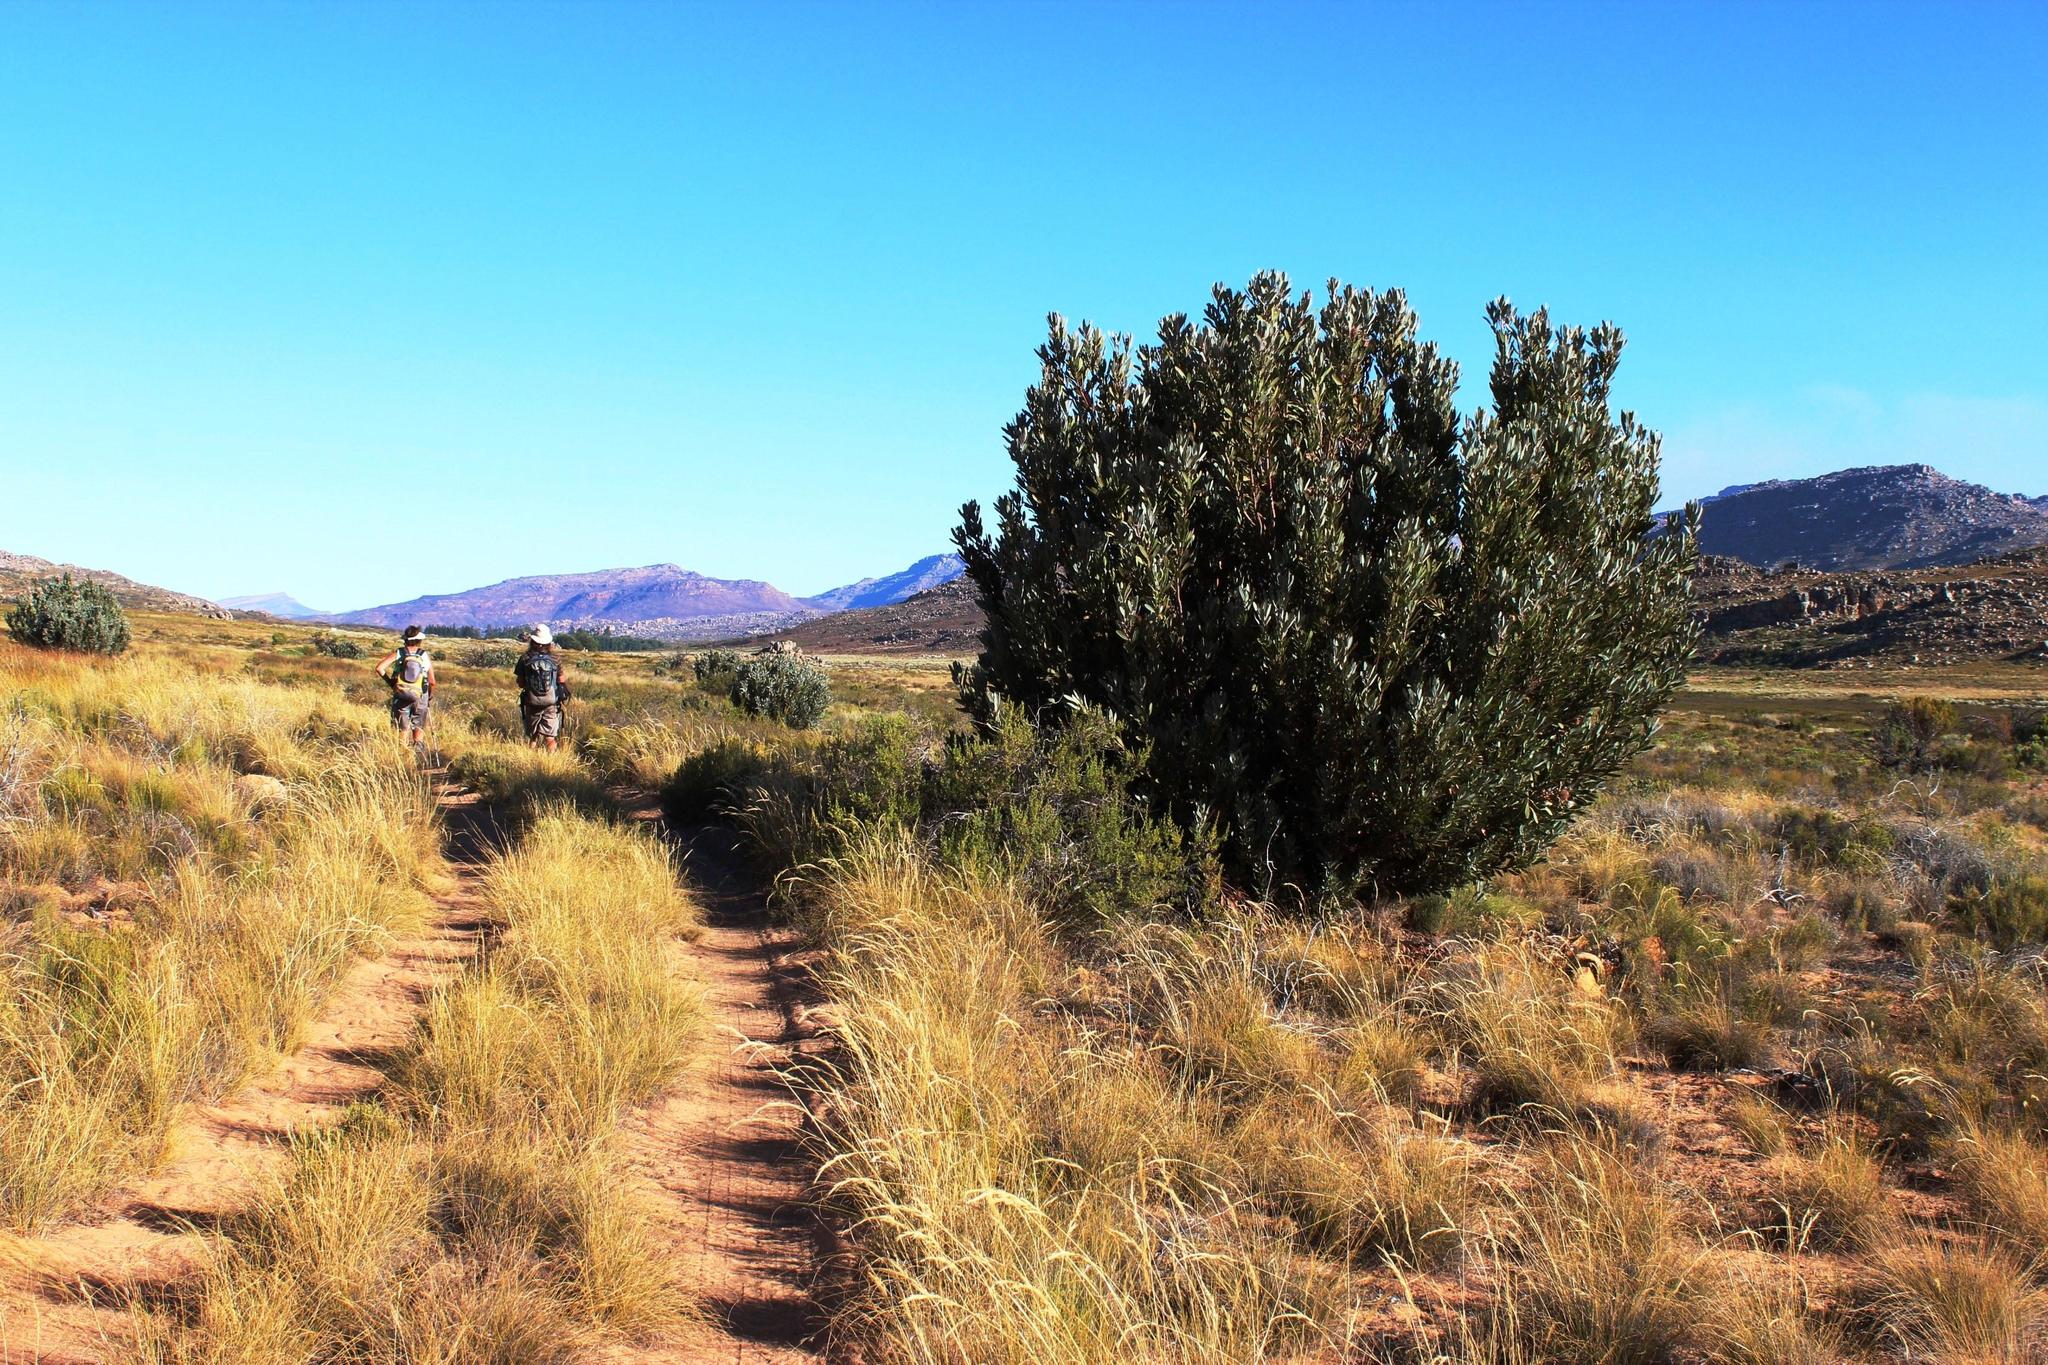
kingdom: Plantae
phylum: Tracheophyta
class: Magnoliopsida
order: Proteales
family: Proteaceae
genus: Protea
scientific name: Protea laurifolia
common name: Grey-leaf sugarbsh
